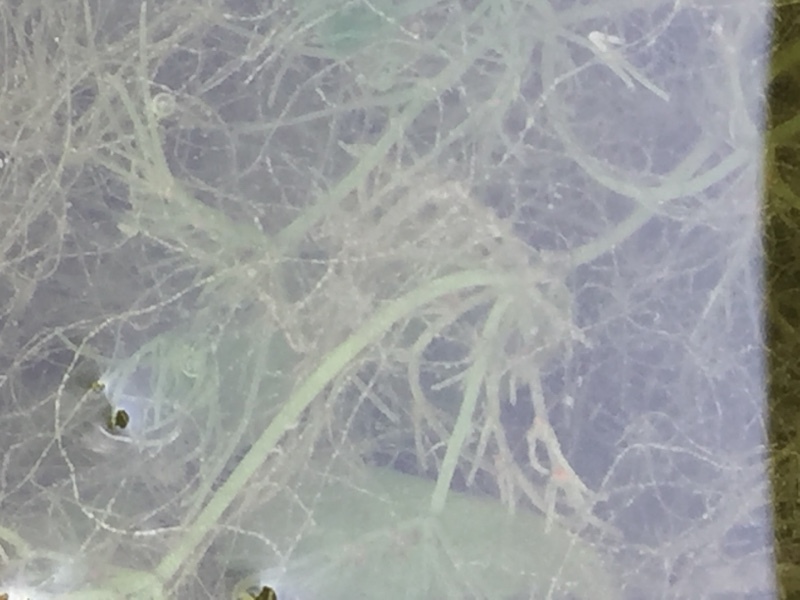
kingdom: Plantae
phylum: Charophyta
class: Charophyceae
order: Charales
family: Characeae
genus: Chara
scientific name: Chara vulgaris
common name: Common stonewort
